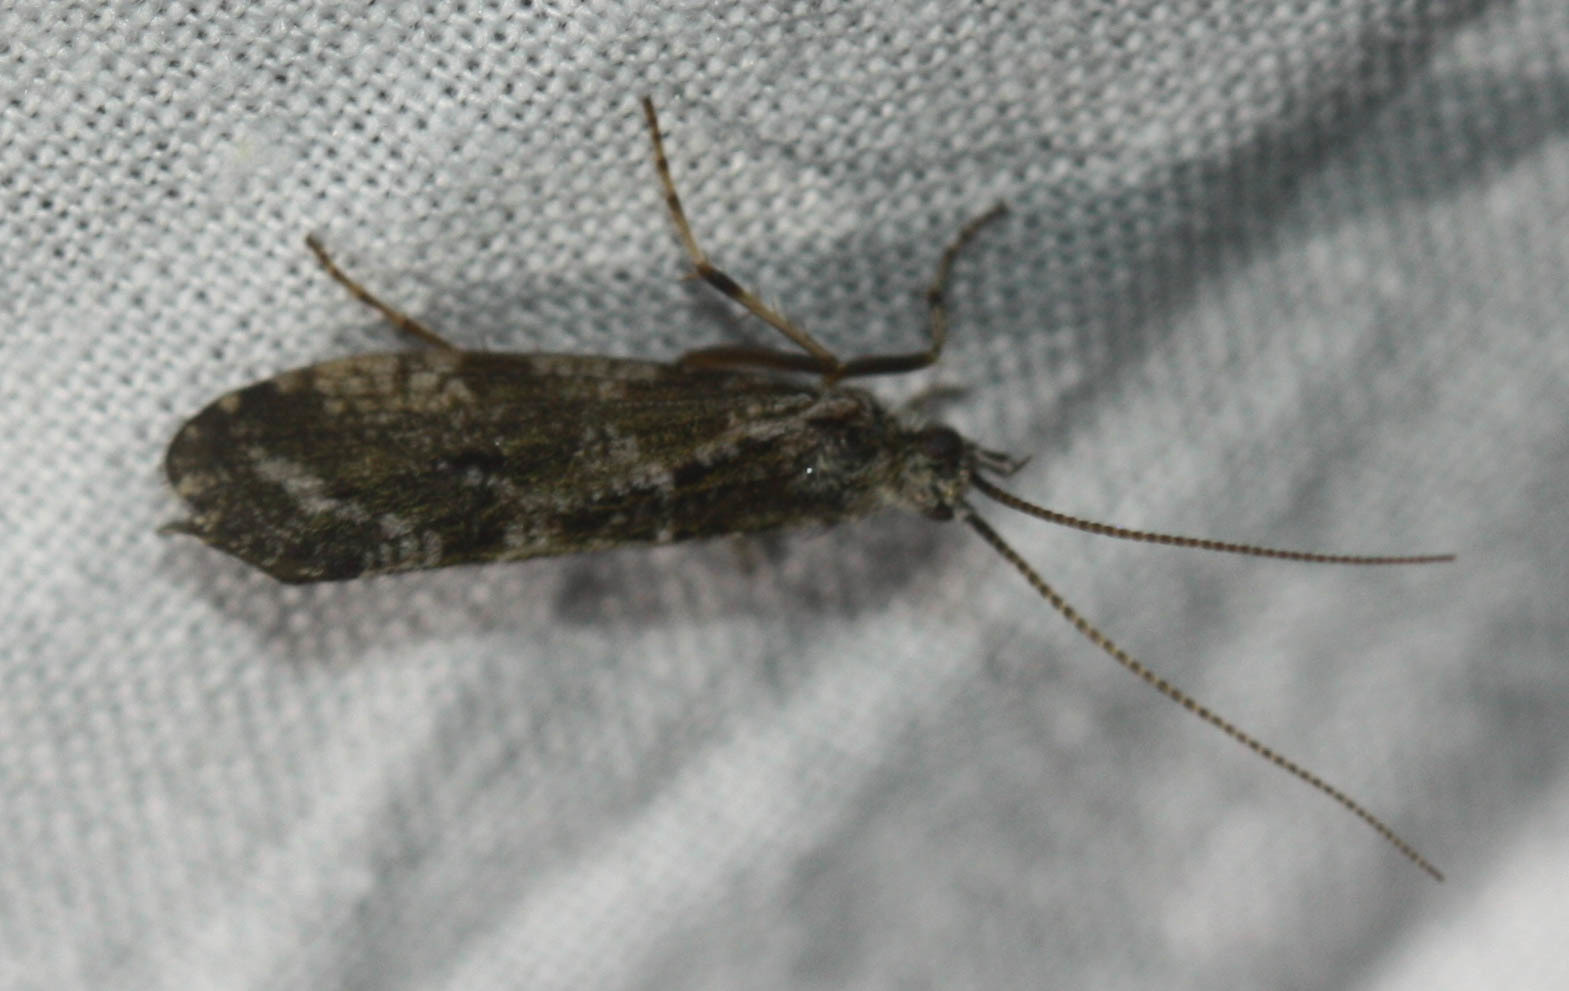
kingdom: Animalia
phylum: Arthropoda
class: Insecta
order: Trichoptera
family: Phryganeidae
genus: Trichostegia
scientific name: Trichostegia minor
